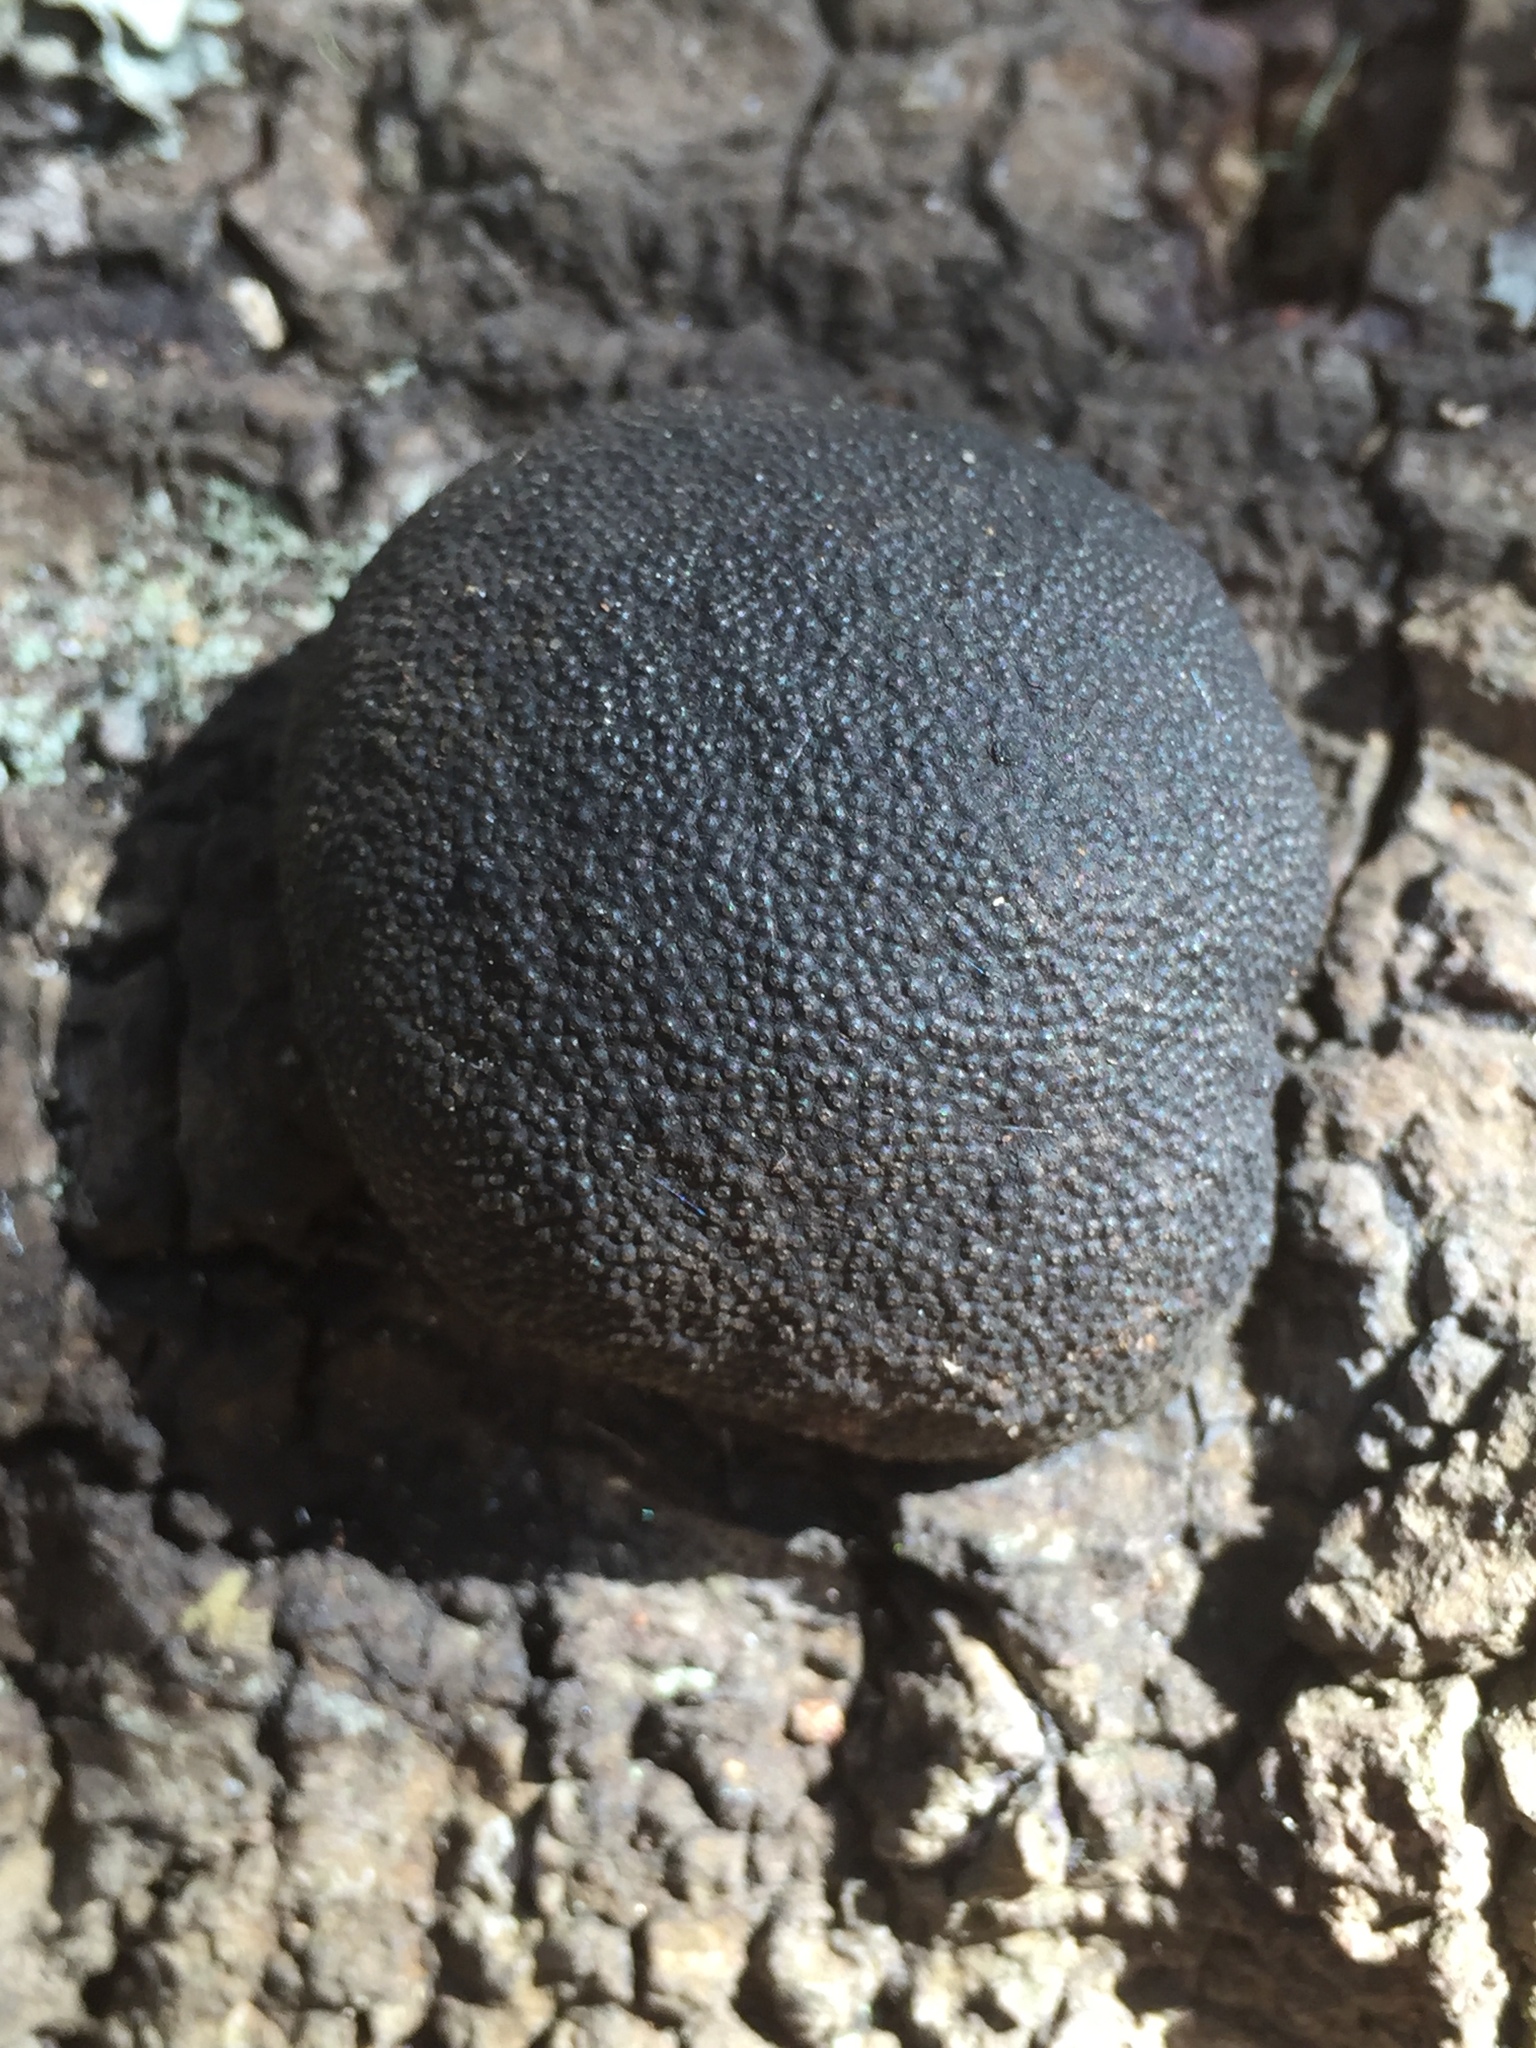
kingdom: Fungi
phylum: Ascomycota
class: Sordariomycetes
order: Xylariales
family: Hypoxylaceae
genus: Annulohypoxylon
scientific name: Annulohypoxylon thouarsianum
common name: Cramp balls
